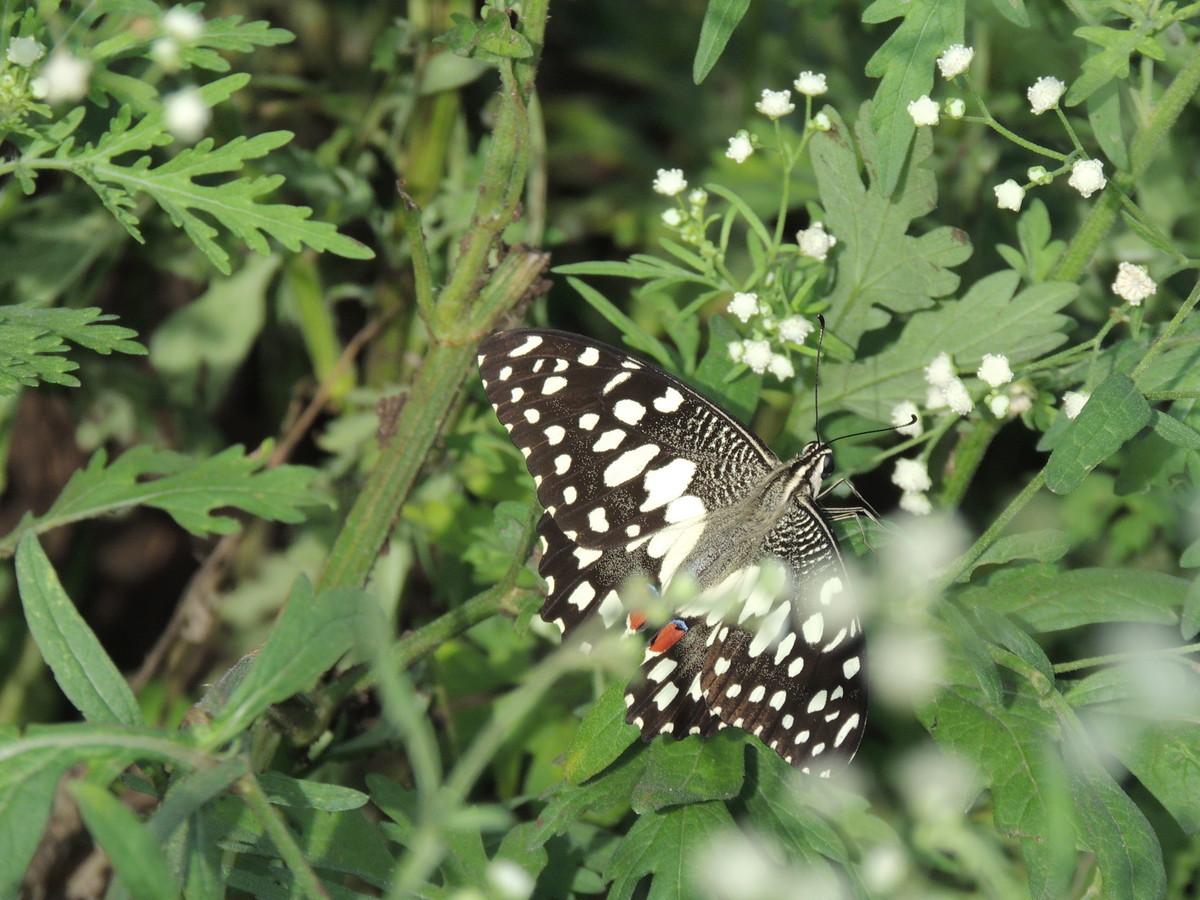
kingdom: Animalia
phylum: Arthropoda
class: Insecta
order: Lepidoptera
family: Papilionidae
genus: Papilio
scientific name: Papilio demoleus
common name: Lime butterfly
